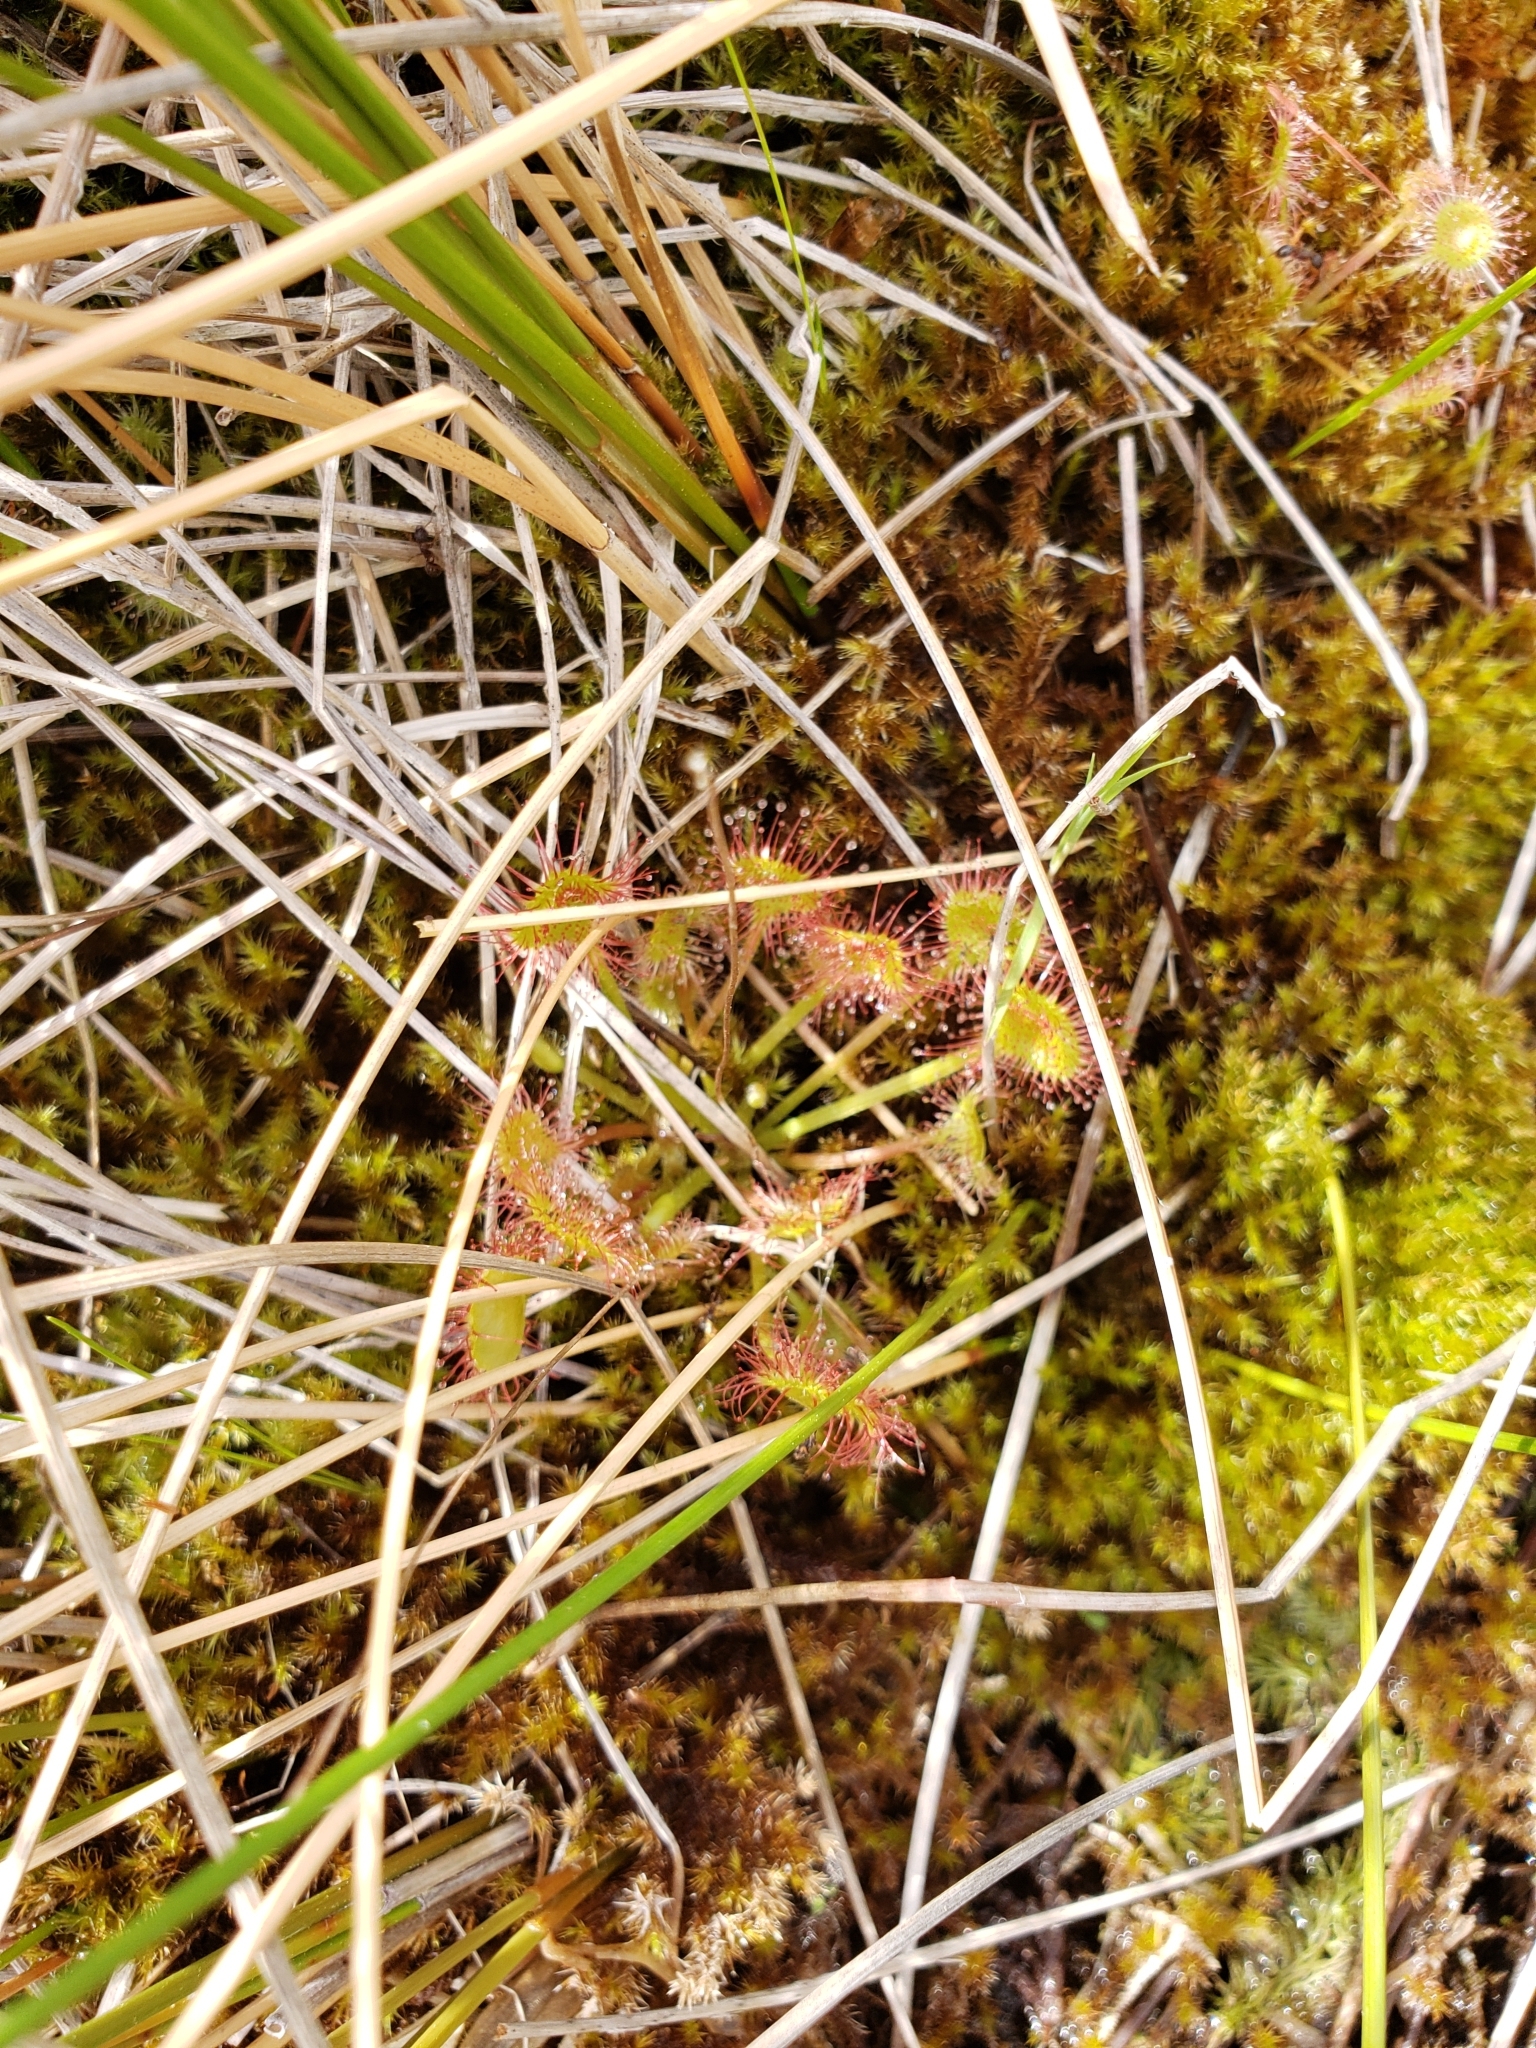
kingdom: Plantae
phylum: Tracheophyta
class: Magnoliopsida
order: Caryophyllales
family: Droseraceae
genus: Drosera
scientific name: Drosera rotundifolia
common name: Round-leaved sundew
